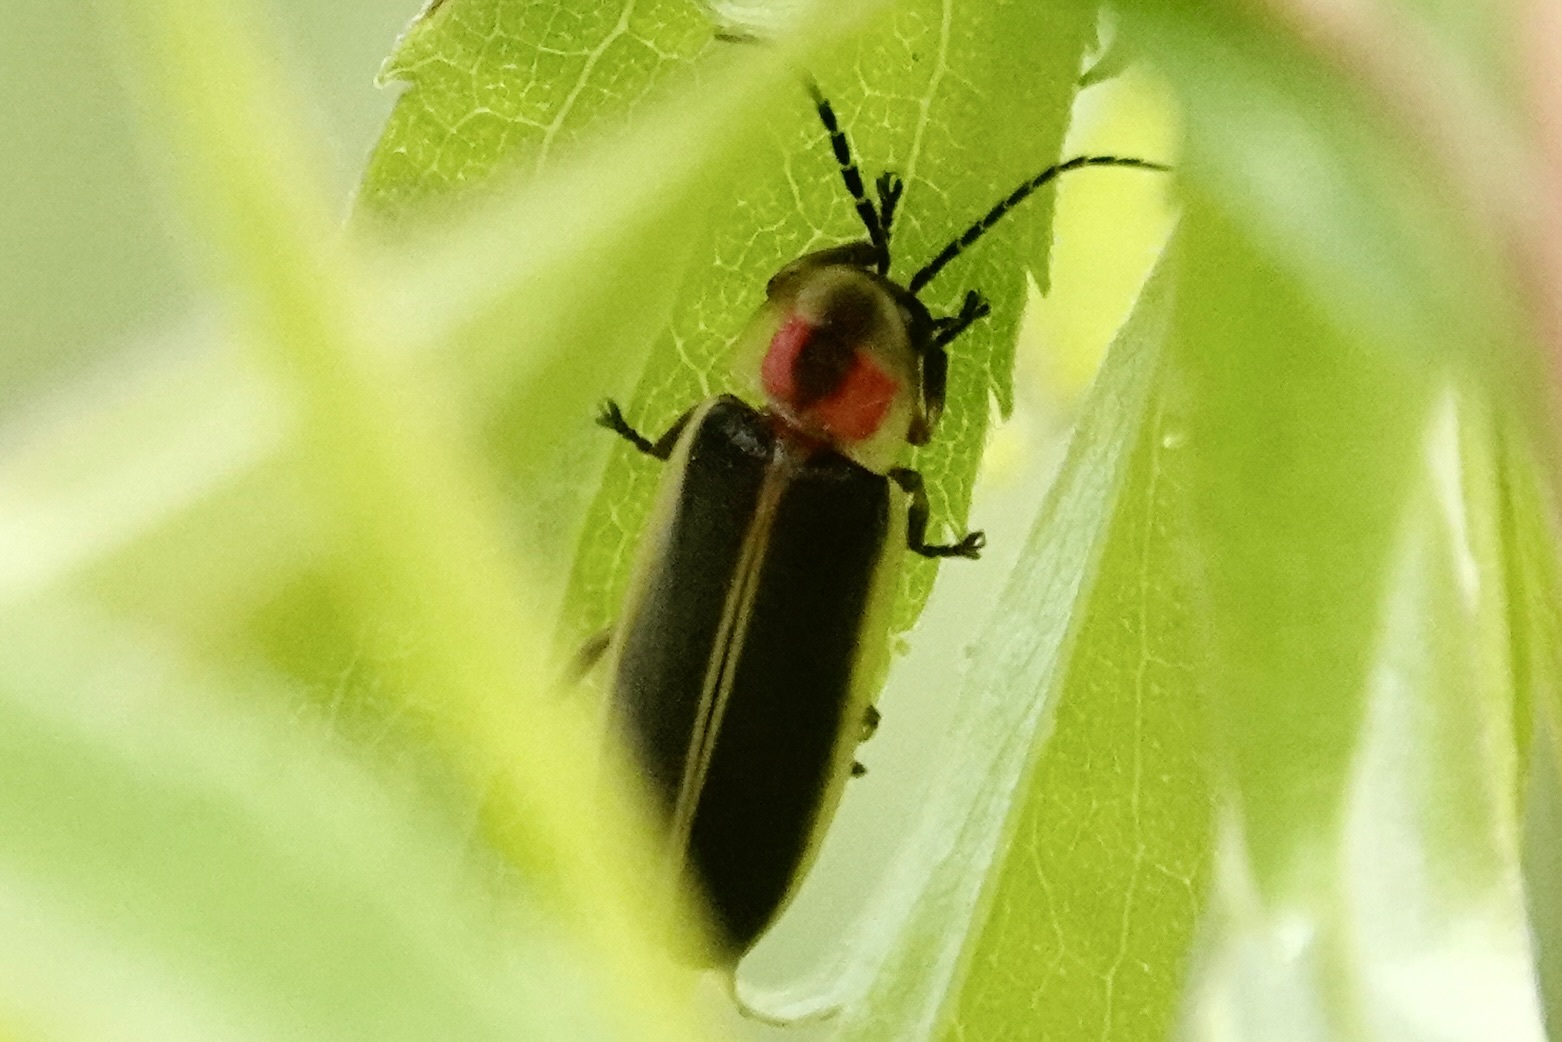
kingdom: Animalia
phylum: Arthropoda
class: Insecta
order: Coleoptera
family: Lampyridae
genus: Photinus
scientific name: Photinus pyralis
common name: Big dipper firefly
